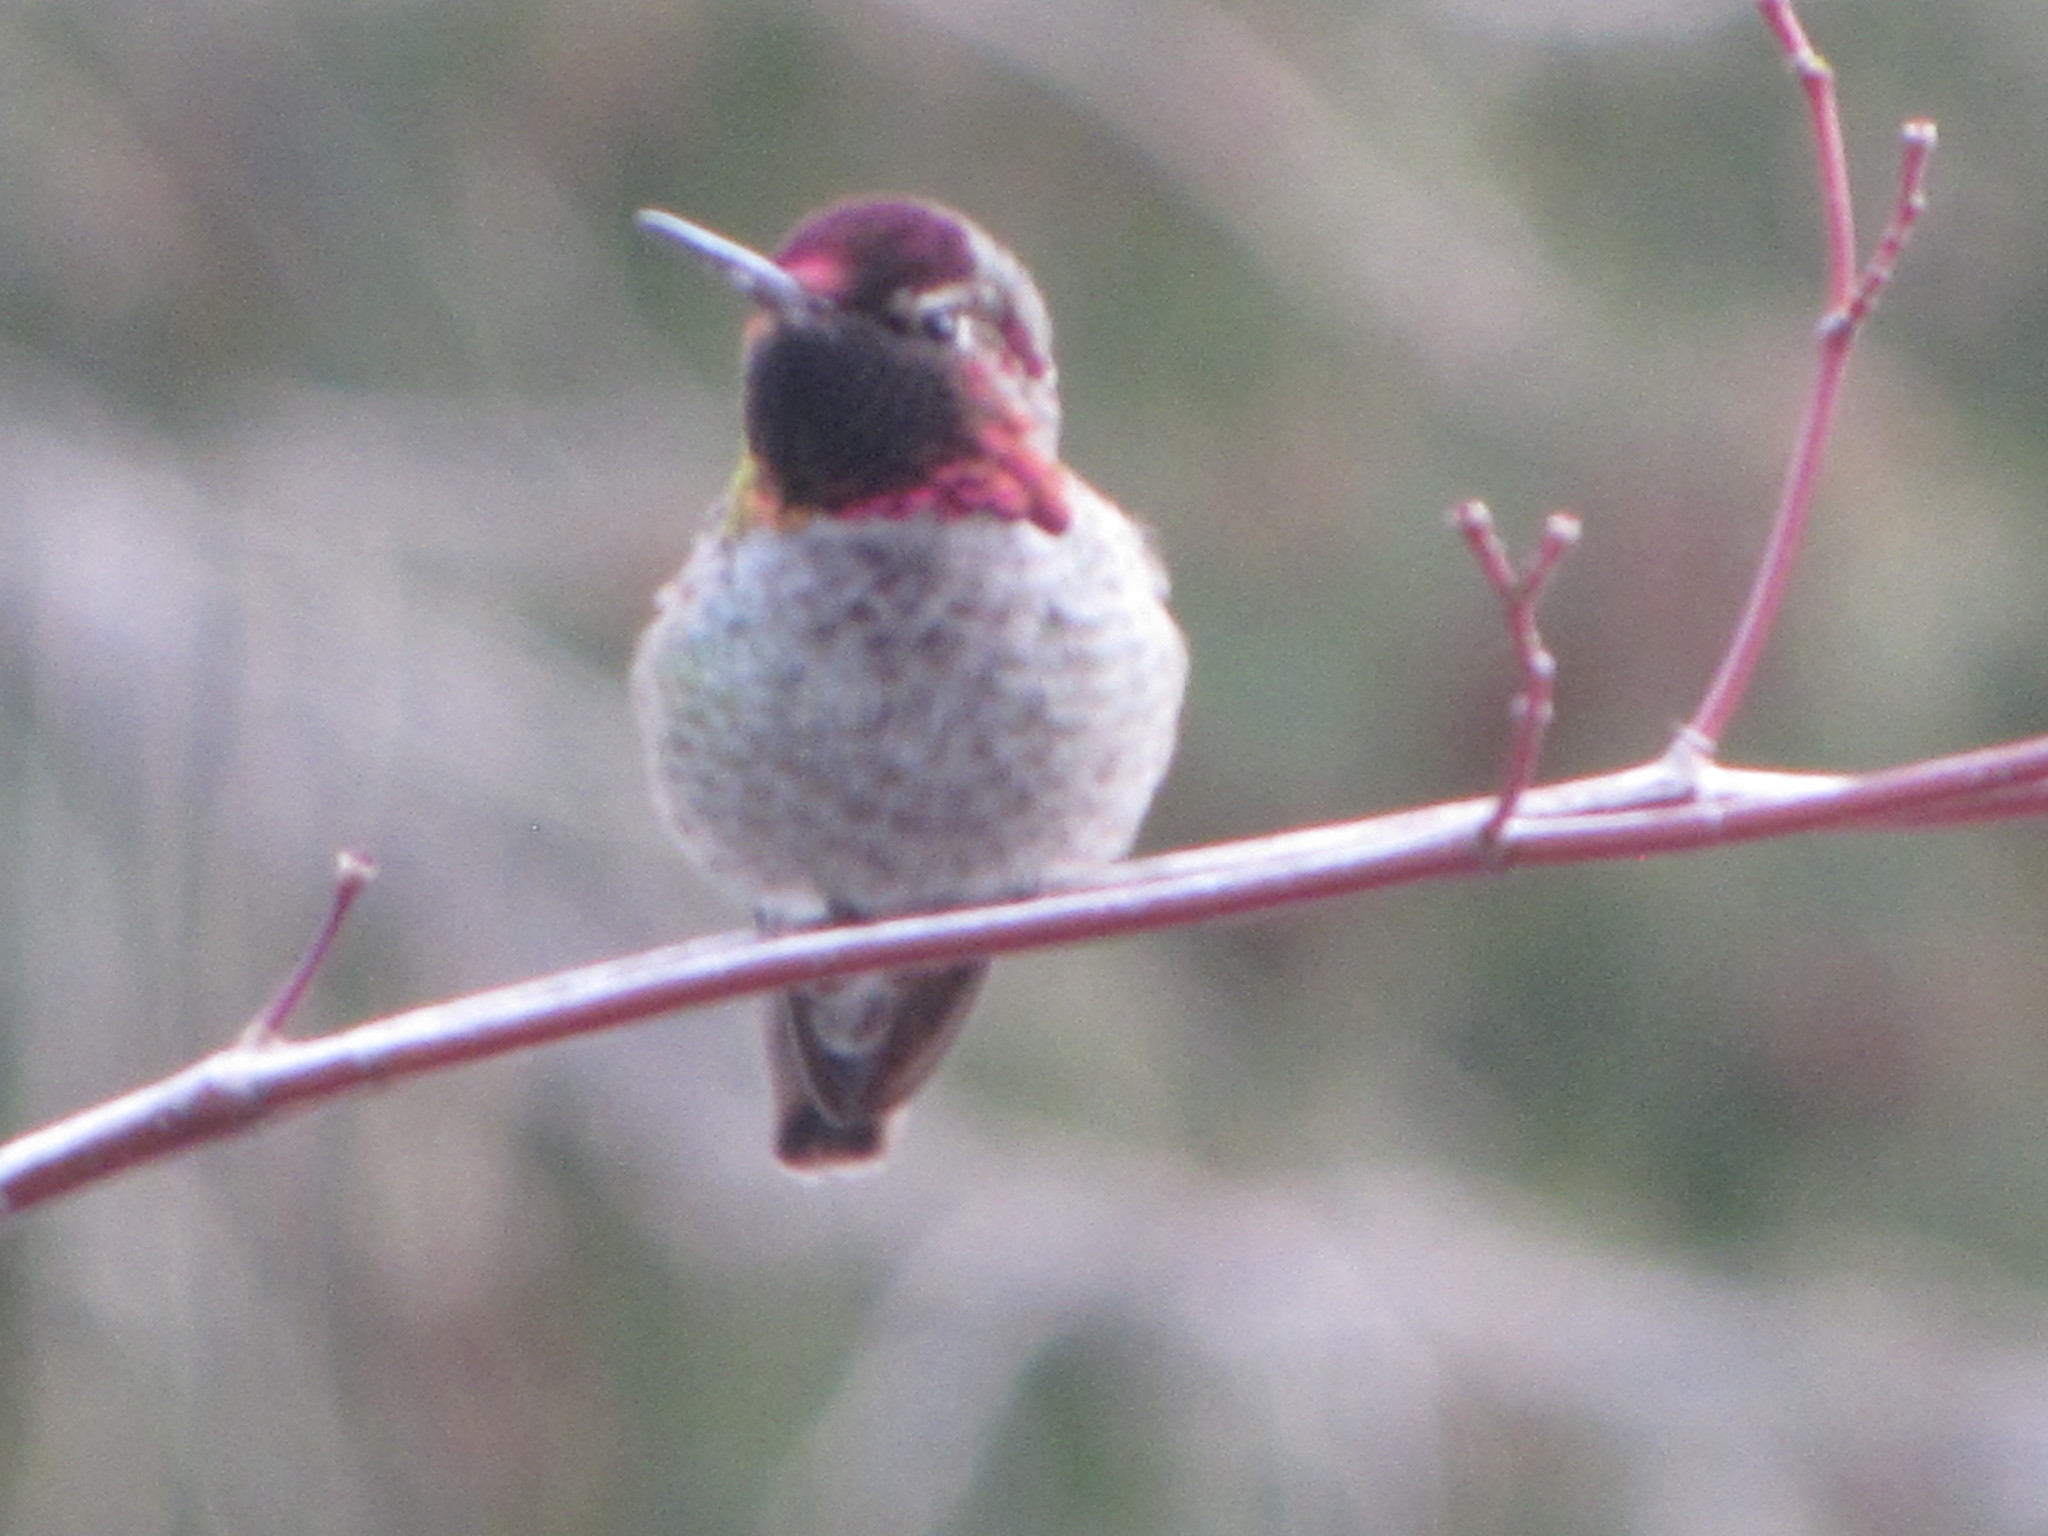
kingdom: Animalia
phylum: Chordata
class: Aves
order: Apodiformes
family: Trochilidae
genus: Calypte
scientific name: Calypte anna
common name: Anna's hummingbird
